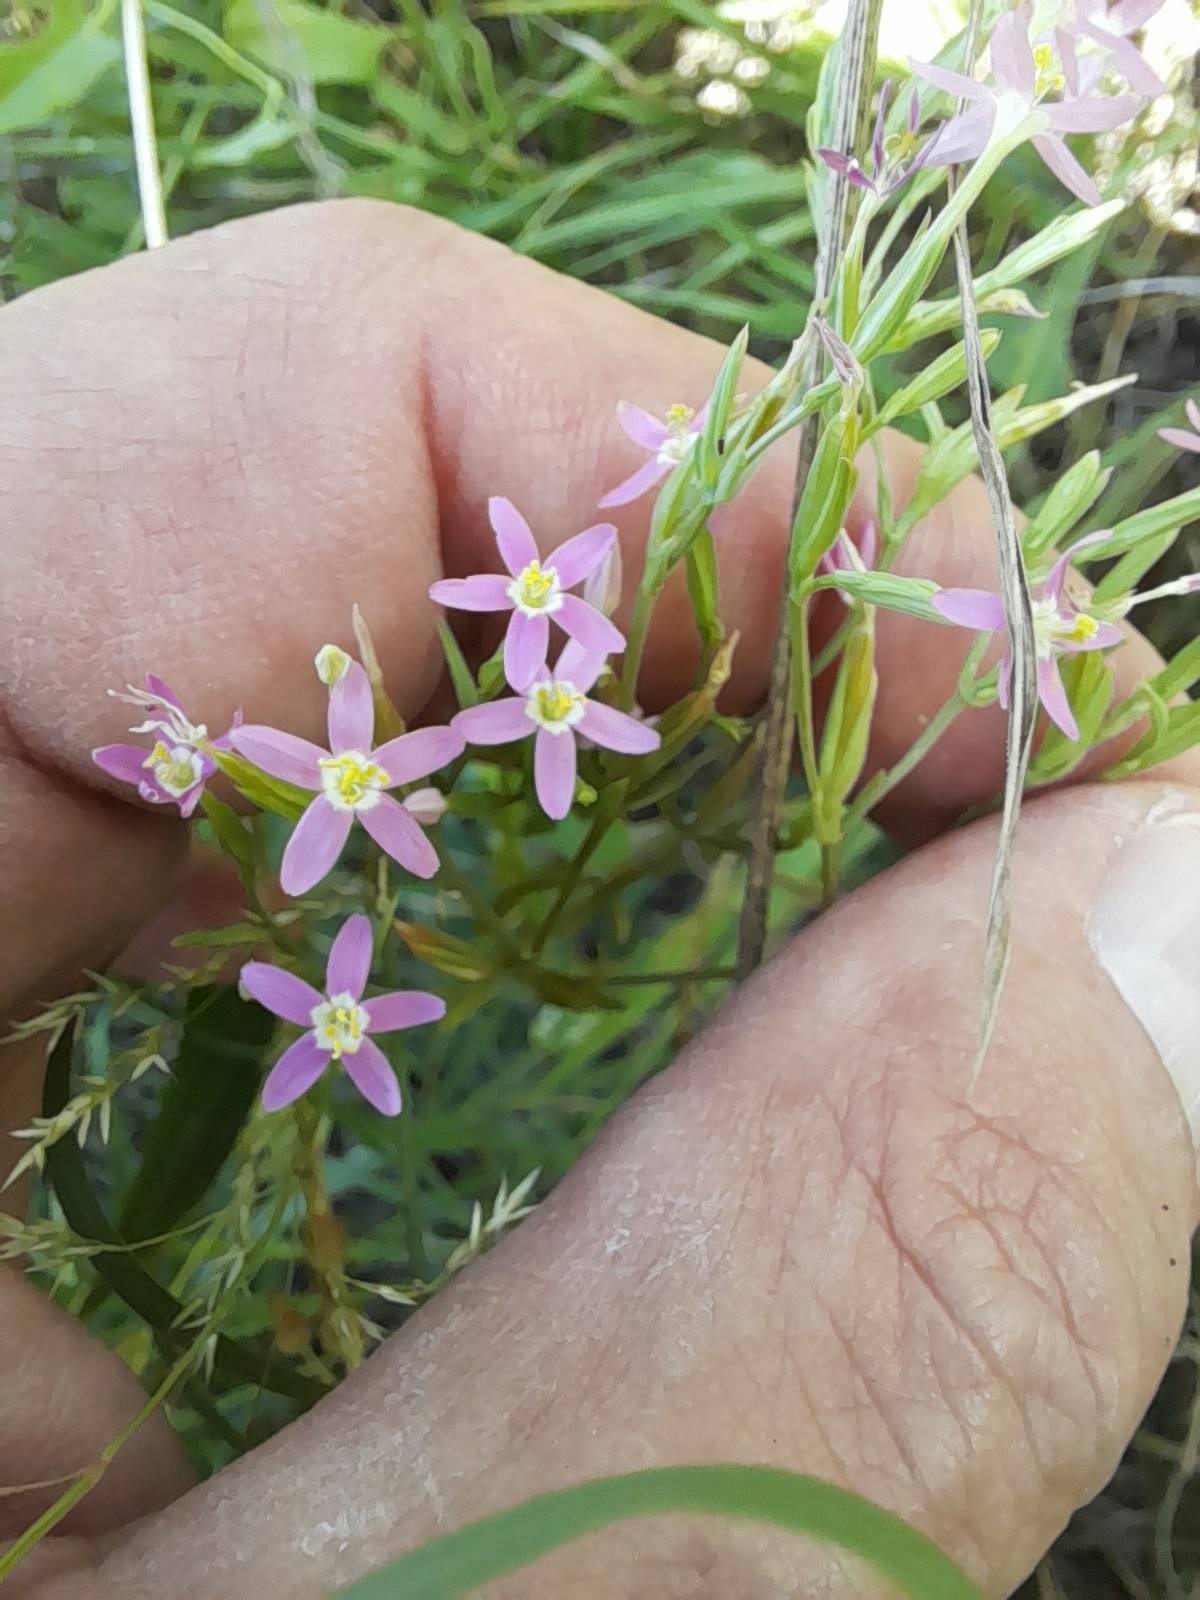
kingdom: Plantae
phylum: Tracheophyta
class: Magnoliopsida
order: Gentianales
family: Gentianaceae
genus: Centaurium
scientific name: Centaurium tenuiflorum
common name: Slender centaury
